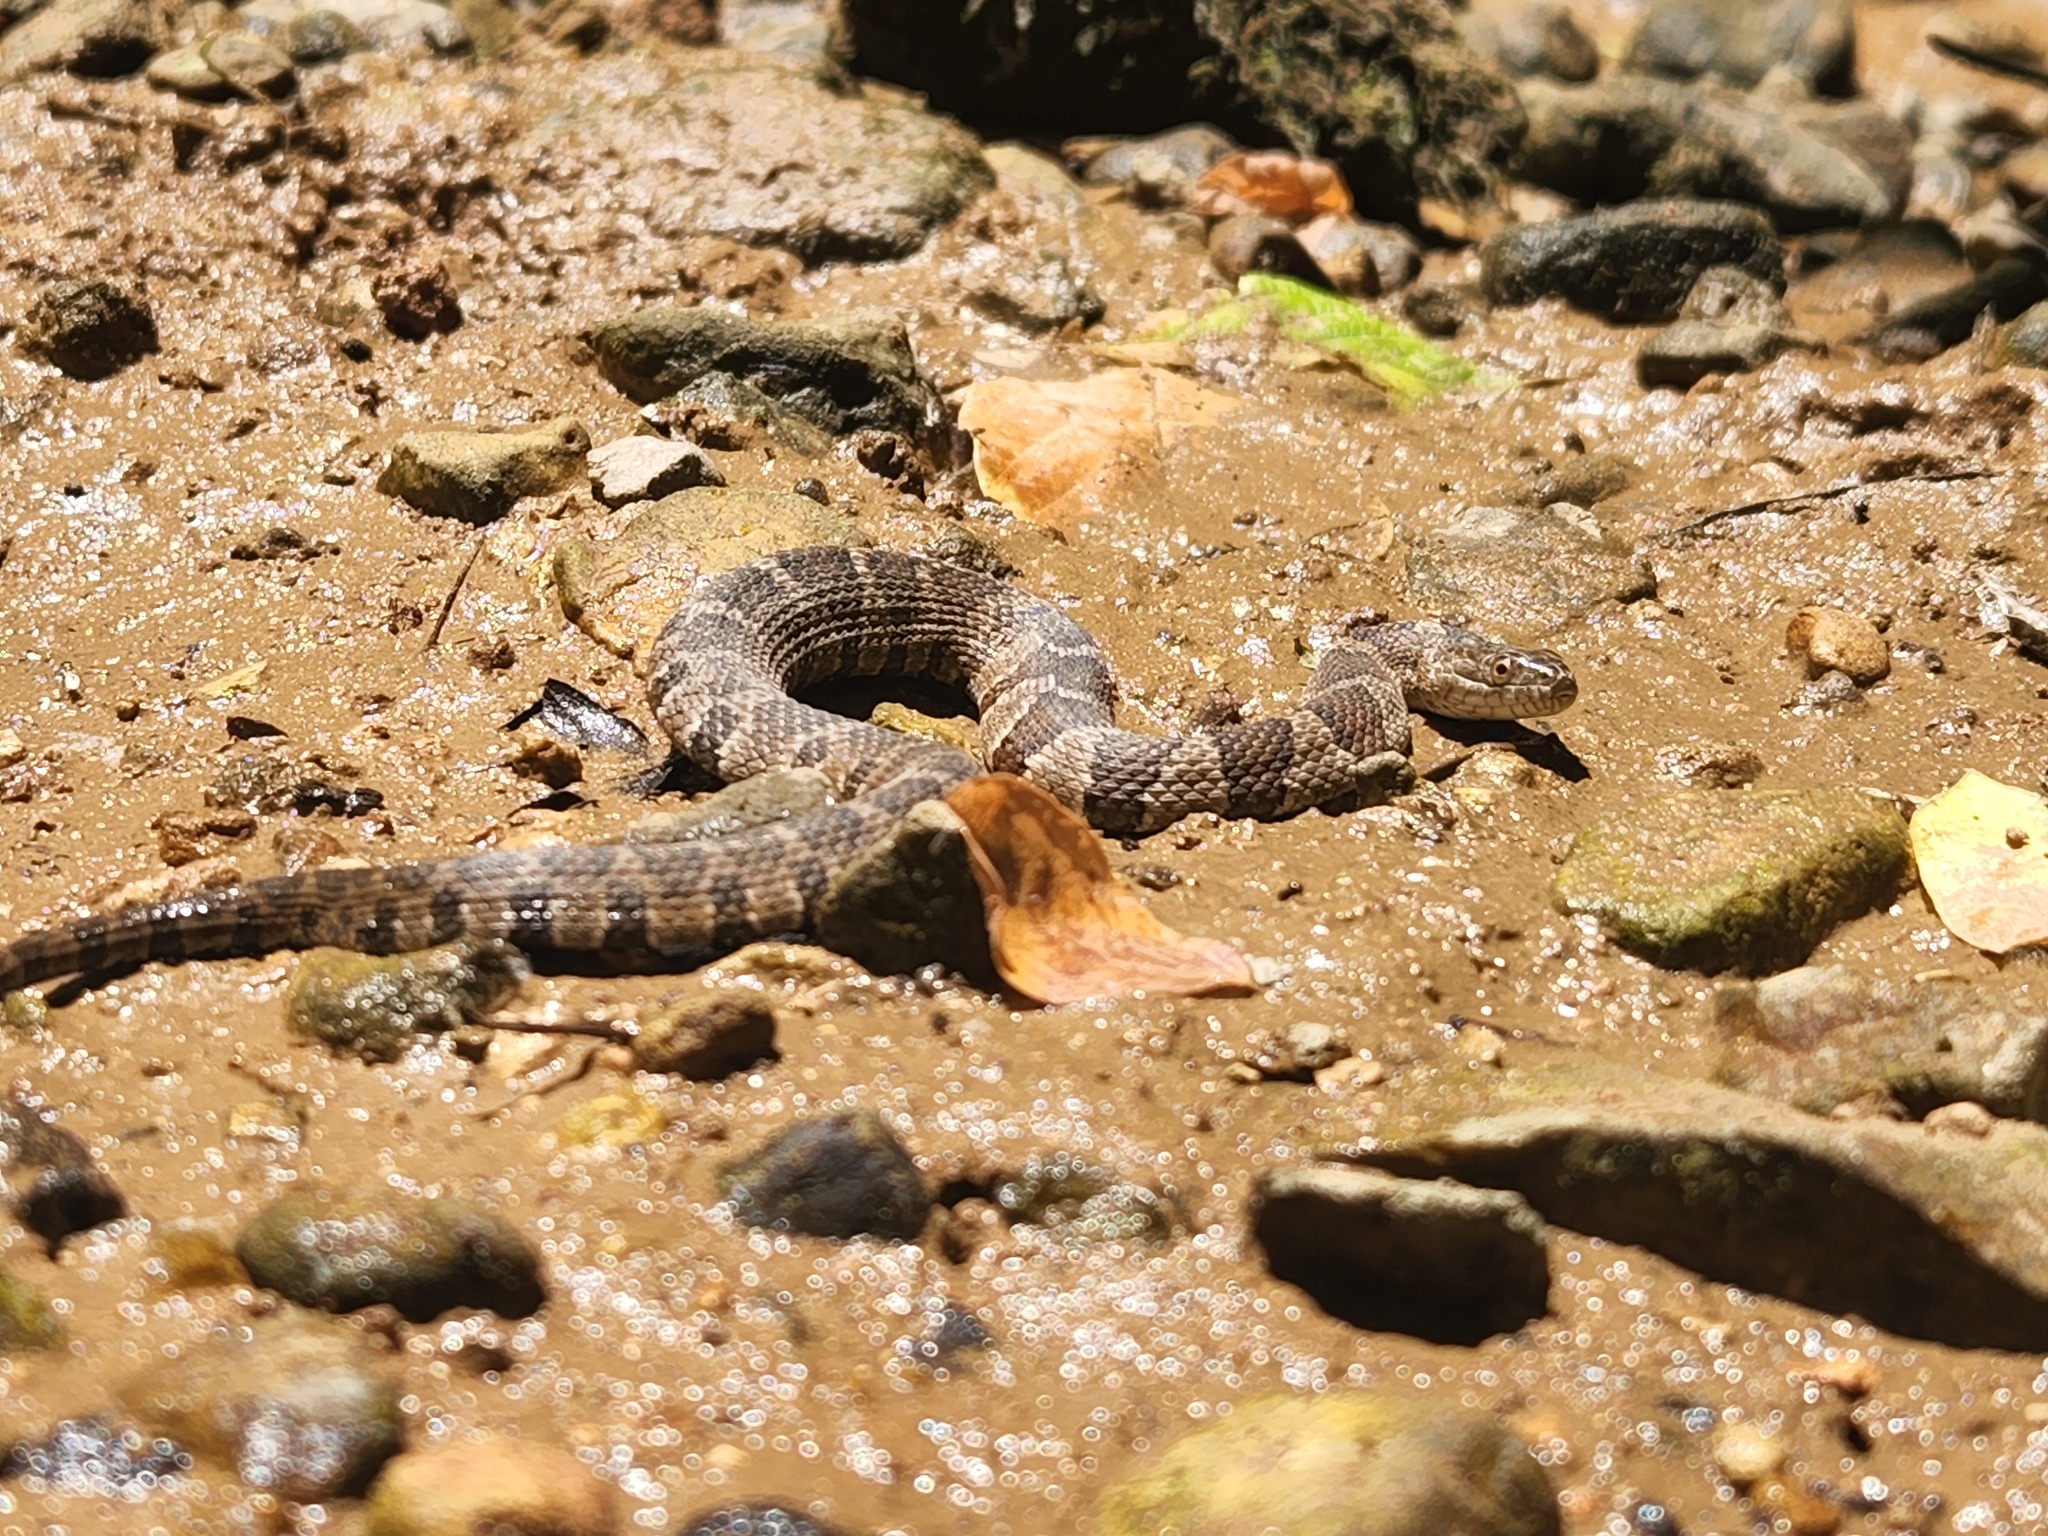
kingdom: Animalia
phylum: Chordata
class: Squamata
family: Colubridae
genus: Nerodia
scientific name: Nerodia sipedon
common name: Northern water snake
